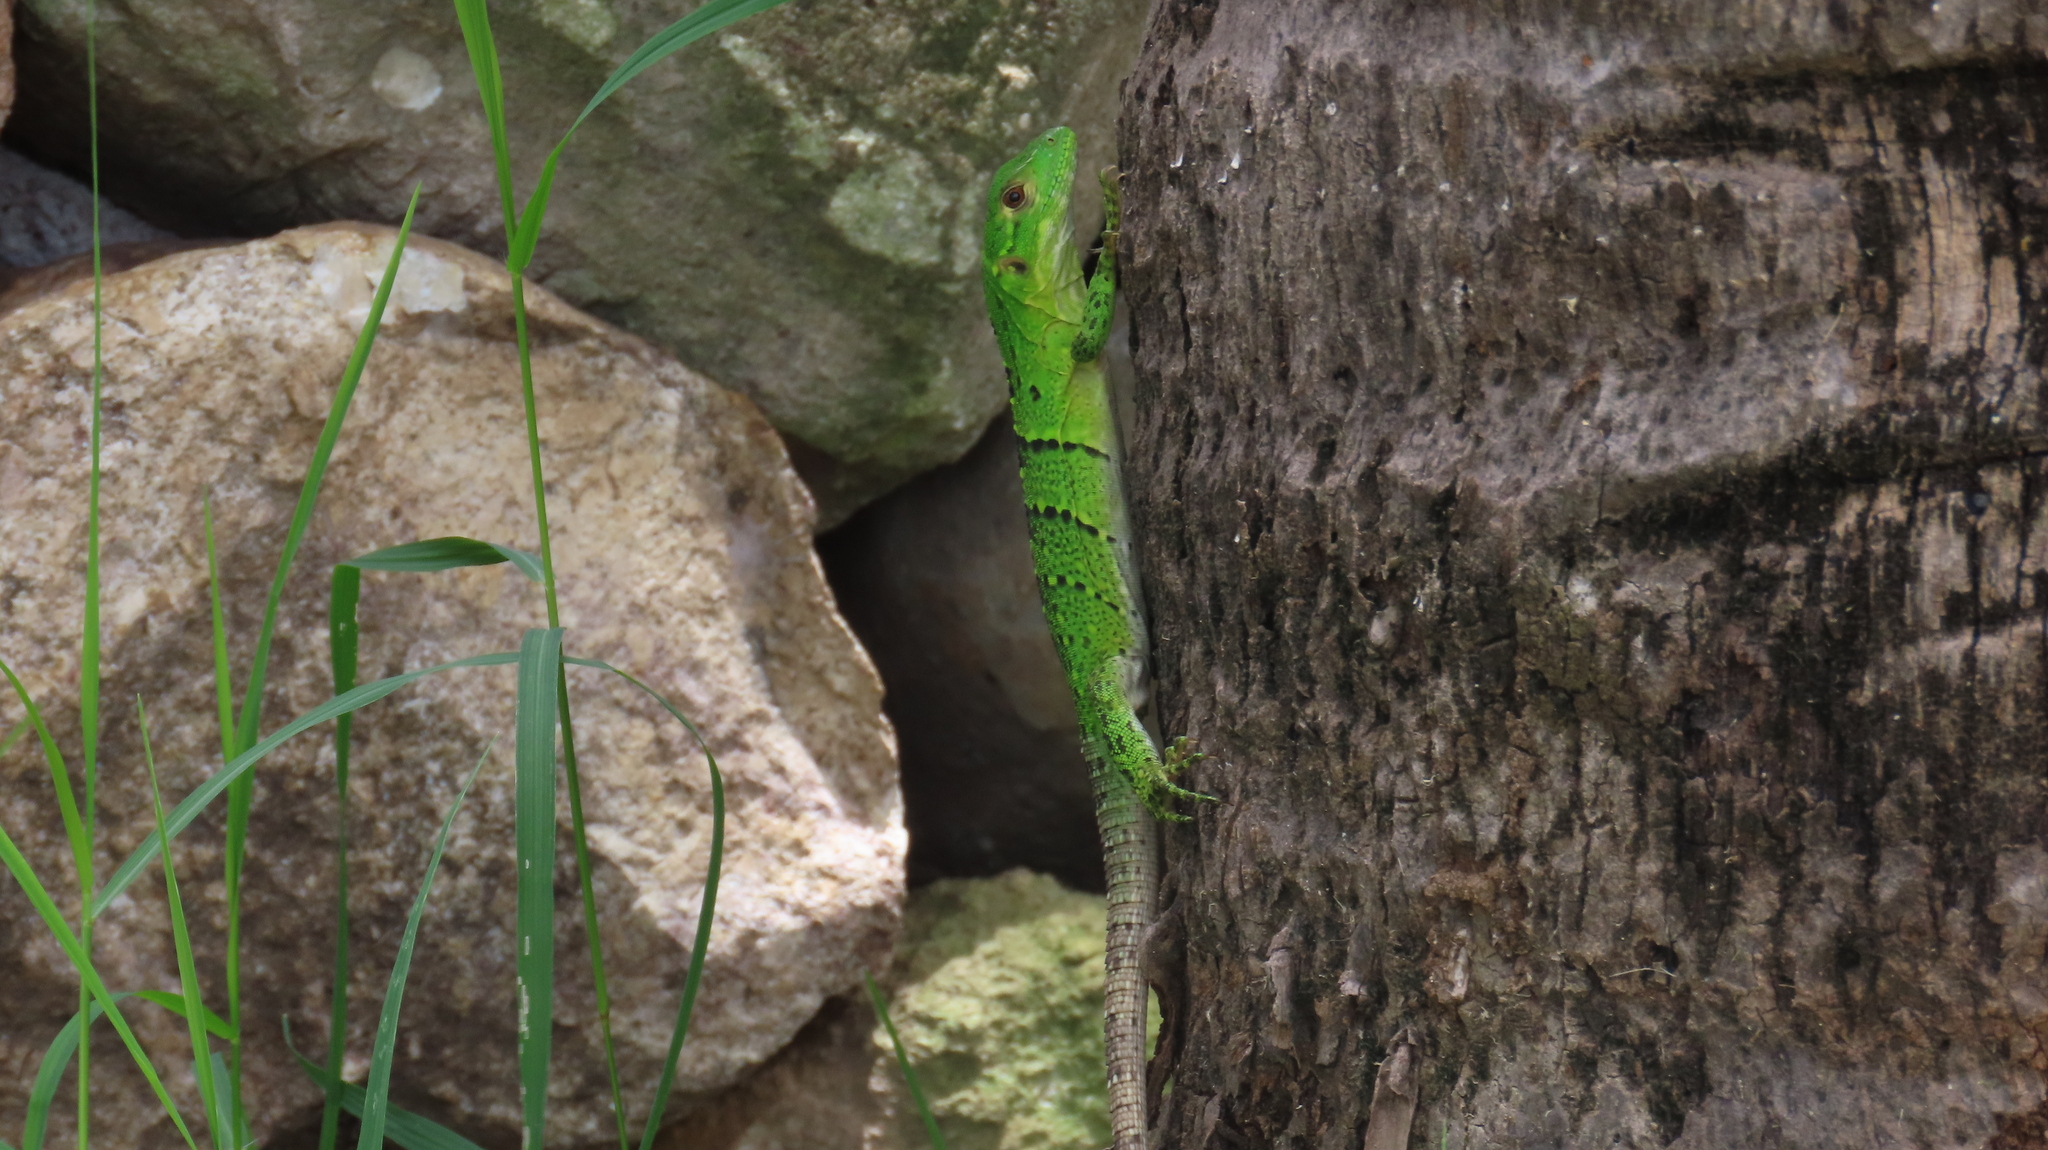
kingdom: Animalia
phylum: Chordata
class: Squamata
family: Iguanidae
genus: Ctenosaura
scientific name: Ctenosaura similis
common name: Black spiny-tailed iguana
